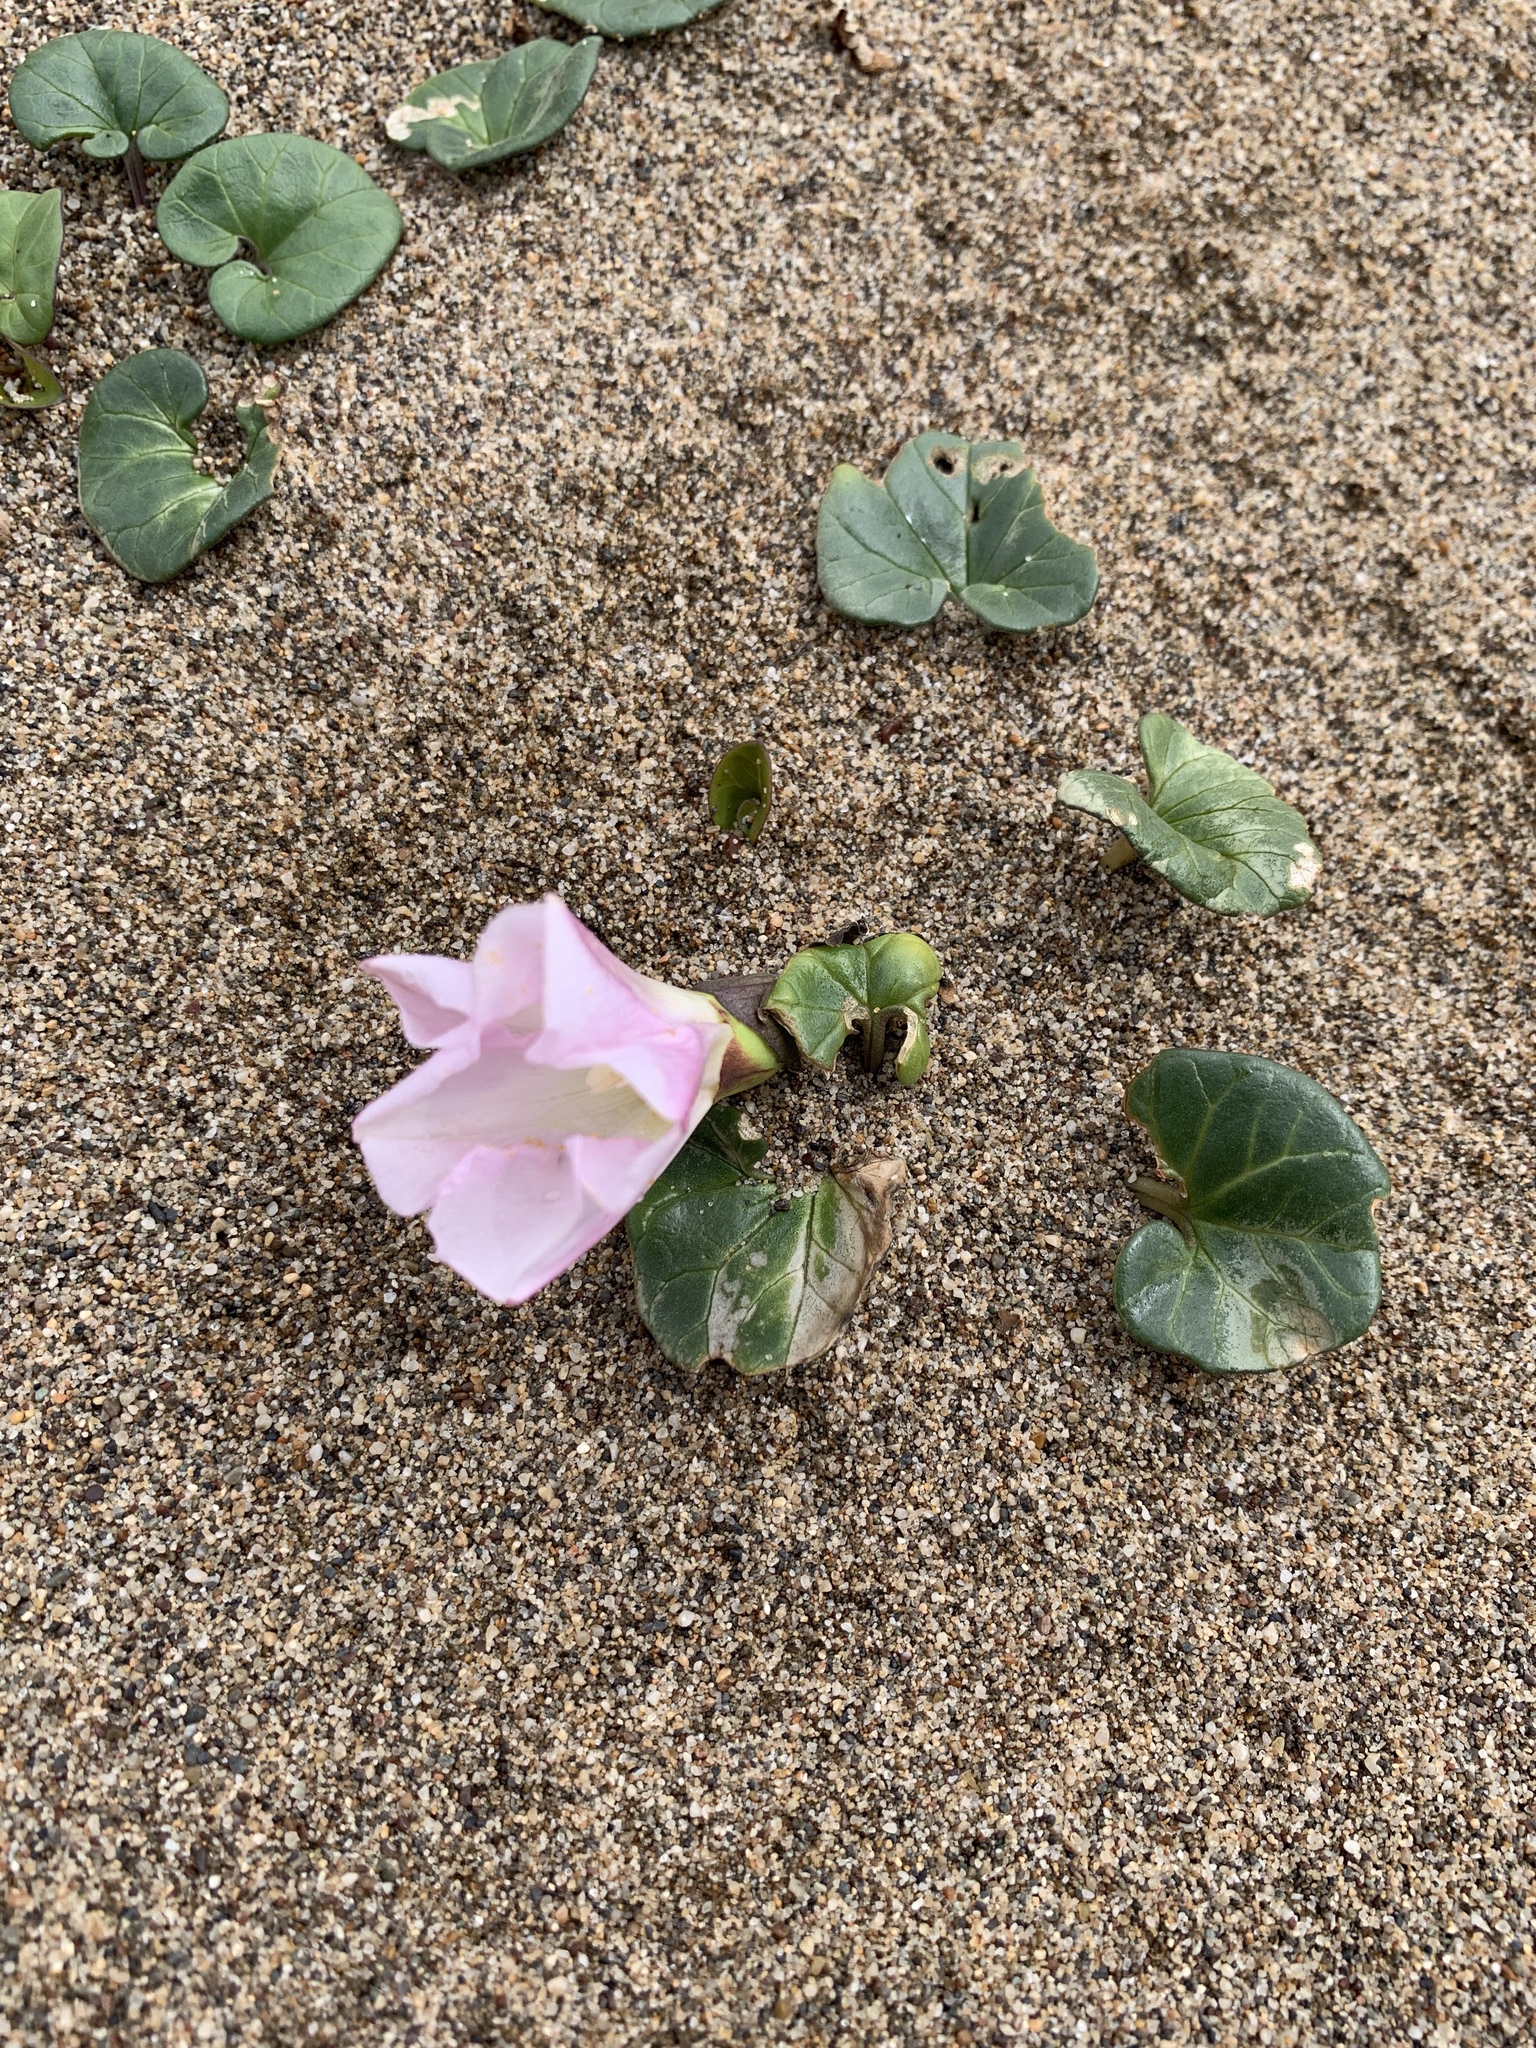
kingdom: Plantae
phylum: Tracheophyta
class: Magnoliopsida
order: Solanales
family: Convolvulaceae
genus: Calystegia
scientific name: Calystegia soldanella
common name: Sea bindweed
